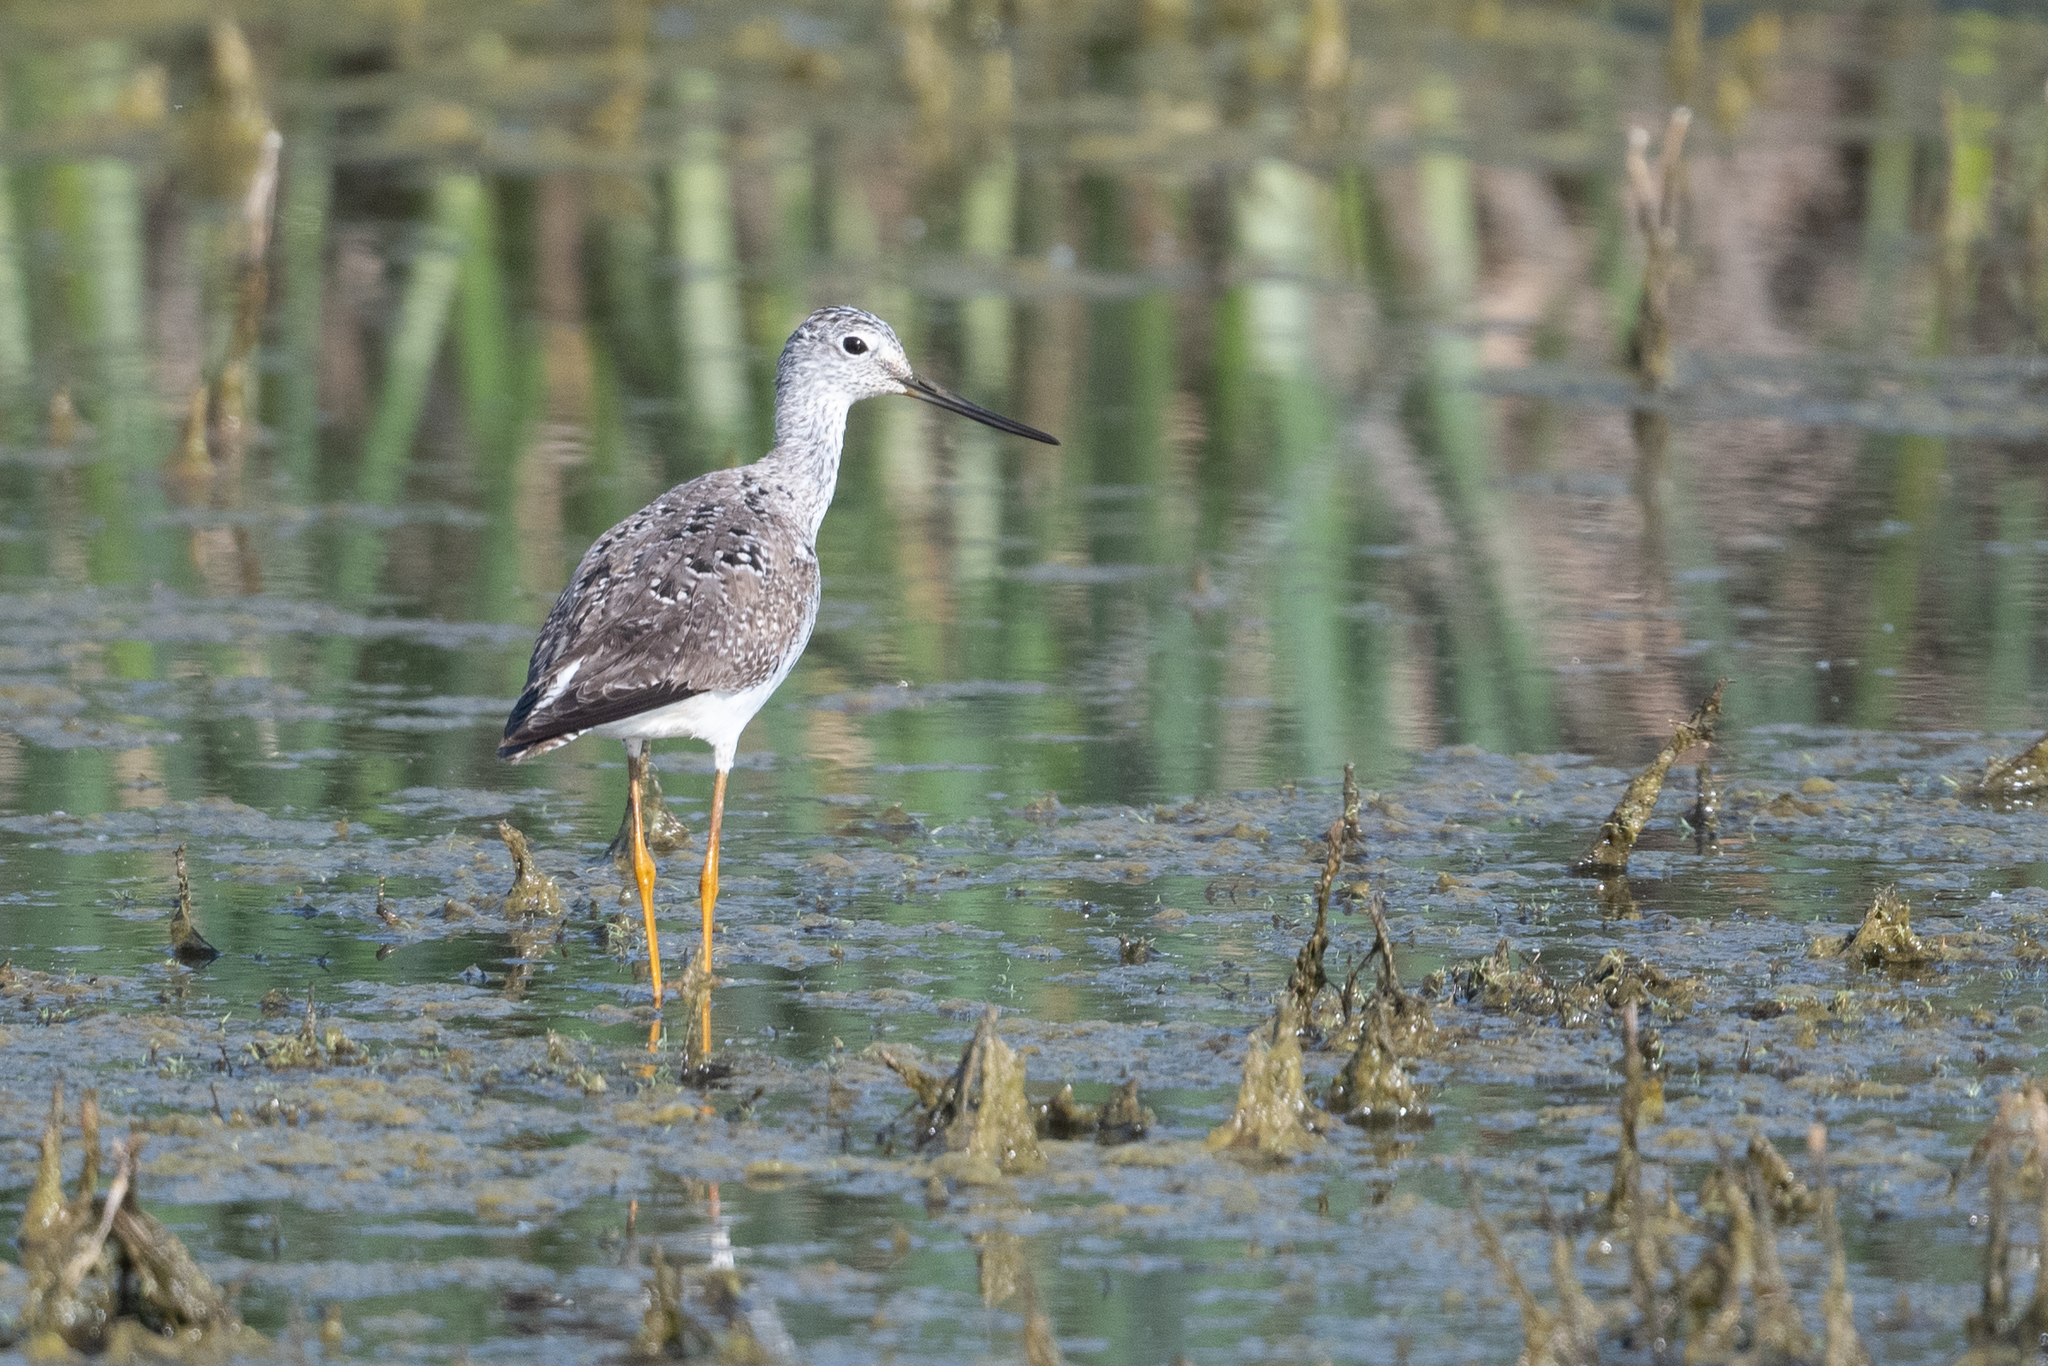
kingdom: Animalia
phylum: Chordata
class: Aves
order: Charadriiformes
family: Scolopacidae
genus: Tringa
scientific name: Tringa melanoleuca
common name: Greater yellowlegs
